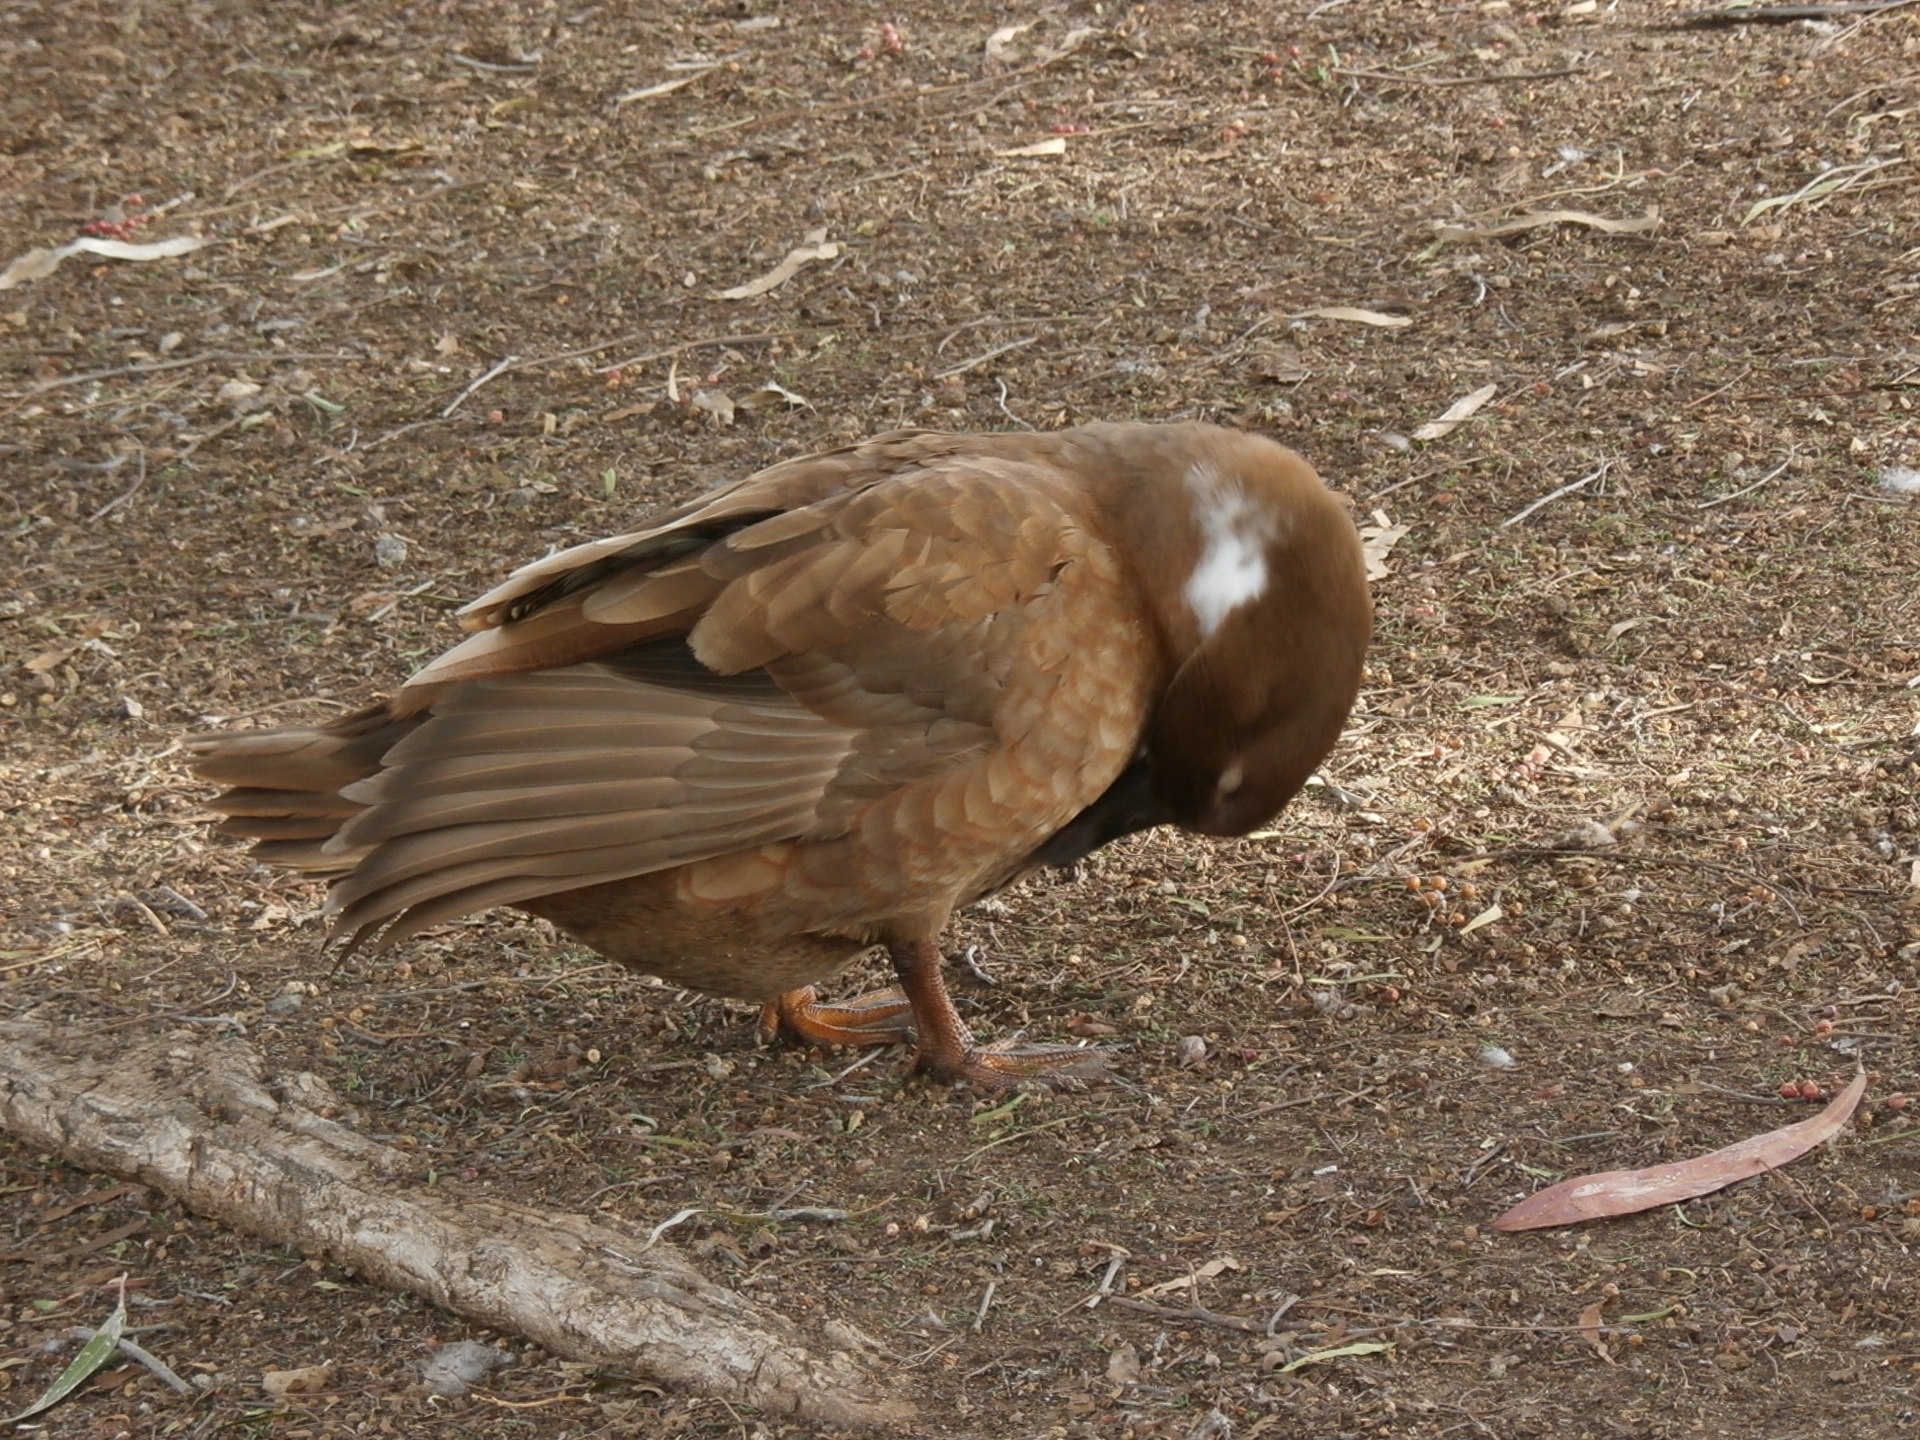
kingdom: Animalia
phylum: Chordata
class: Aves
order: Anseriformes
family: Anatidae
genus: Anas
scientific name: Anas platyrhynchos
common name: Mallard
